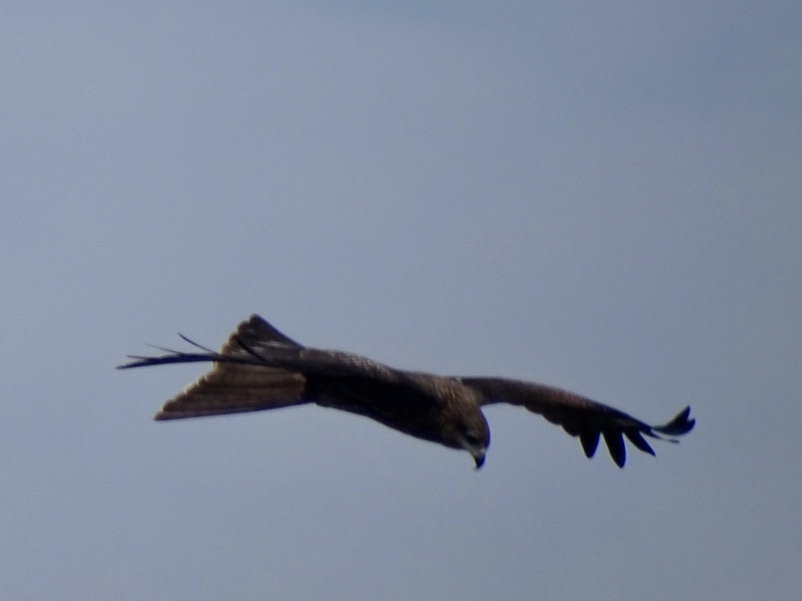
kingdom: Animalia
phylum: Chordata
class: Aves
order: Accipitriformes
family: Accipitridae
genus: Milvus
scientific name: Milvus migrans
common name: Black kite
